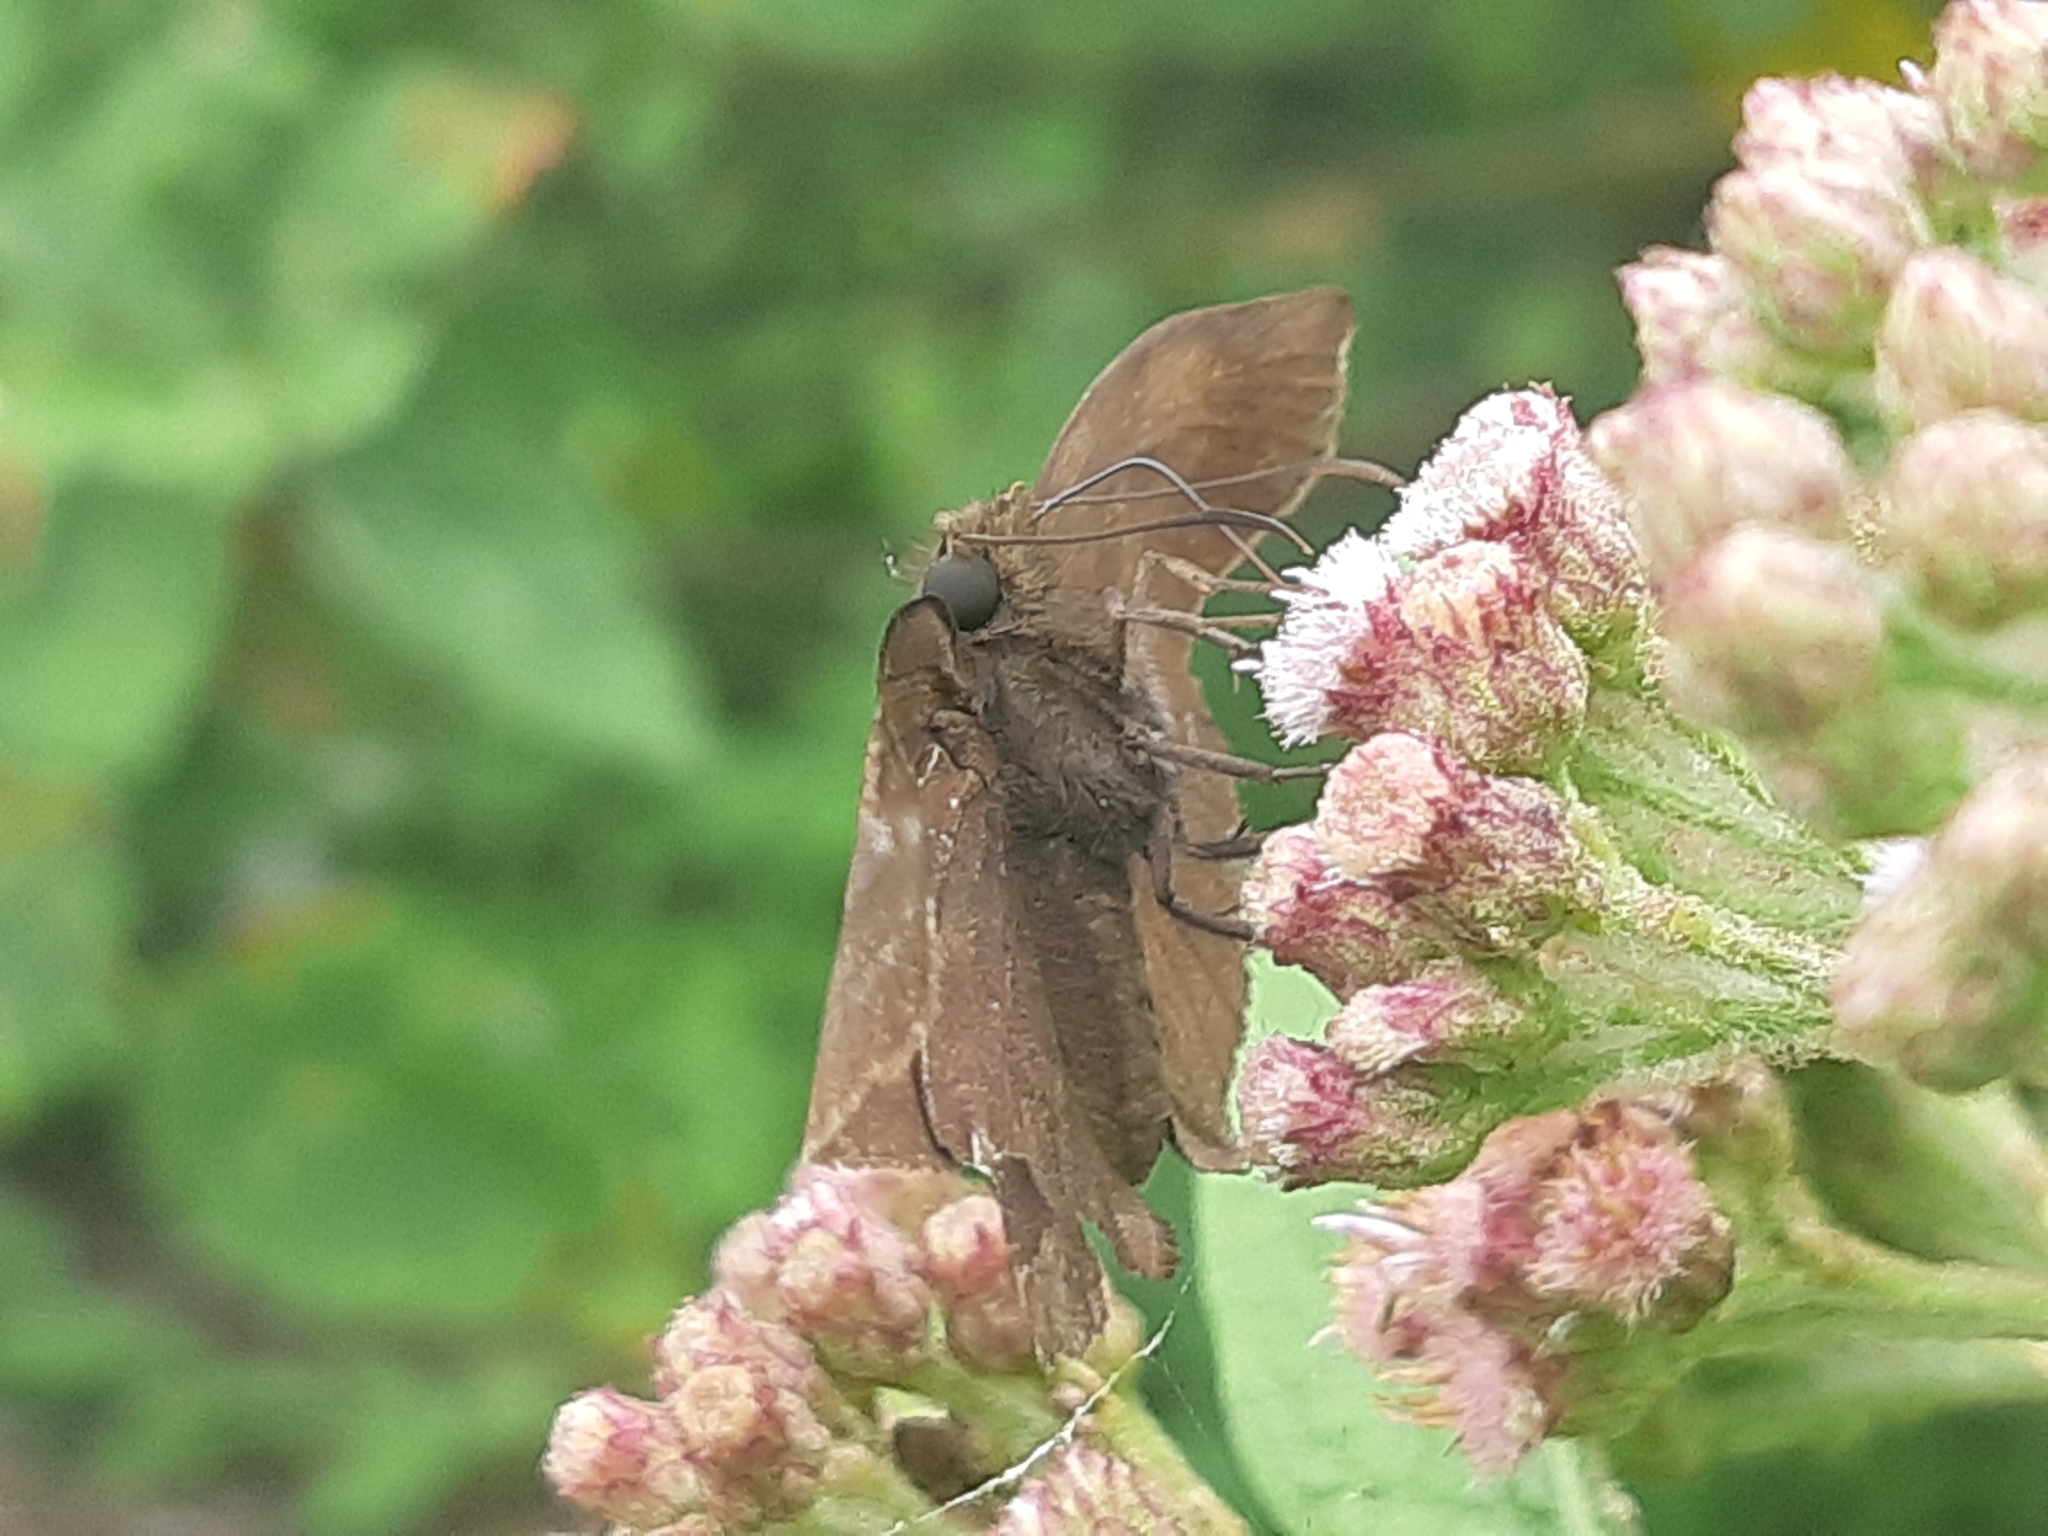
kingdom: Animalia
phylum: Arthropoda
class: Insecta
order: Lepidoptera
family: Hesperiidae
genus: Achlyodes
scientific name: Achlyodes thraso
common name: Sickle-winged skipper
